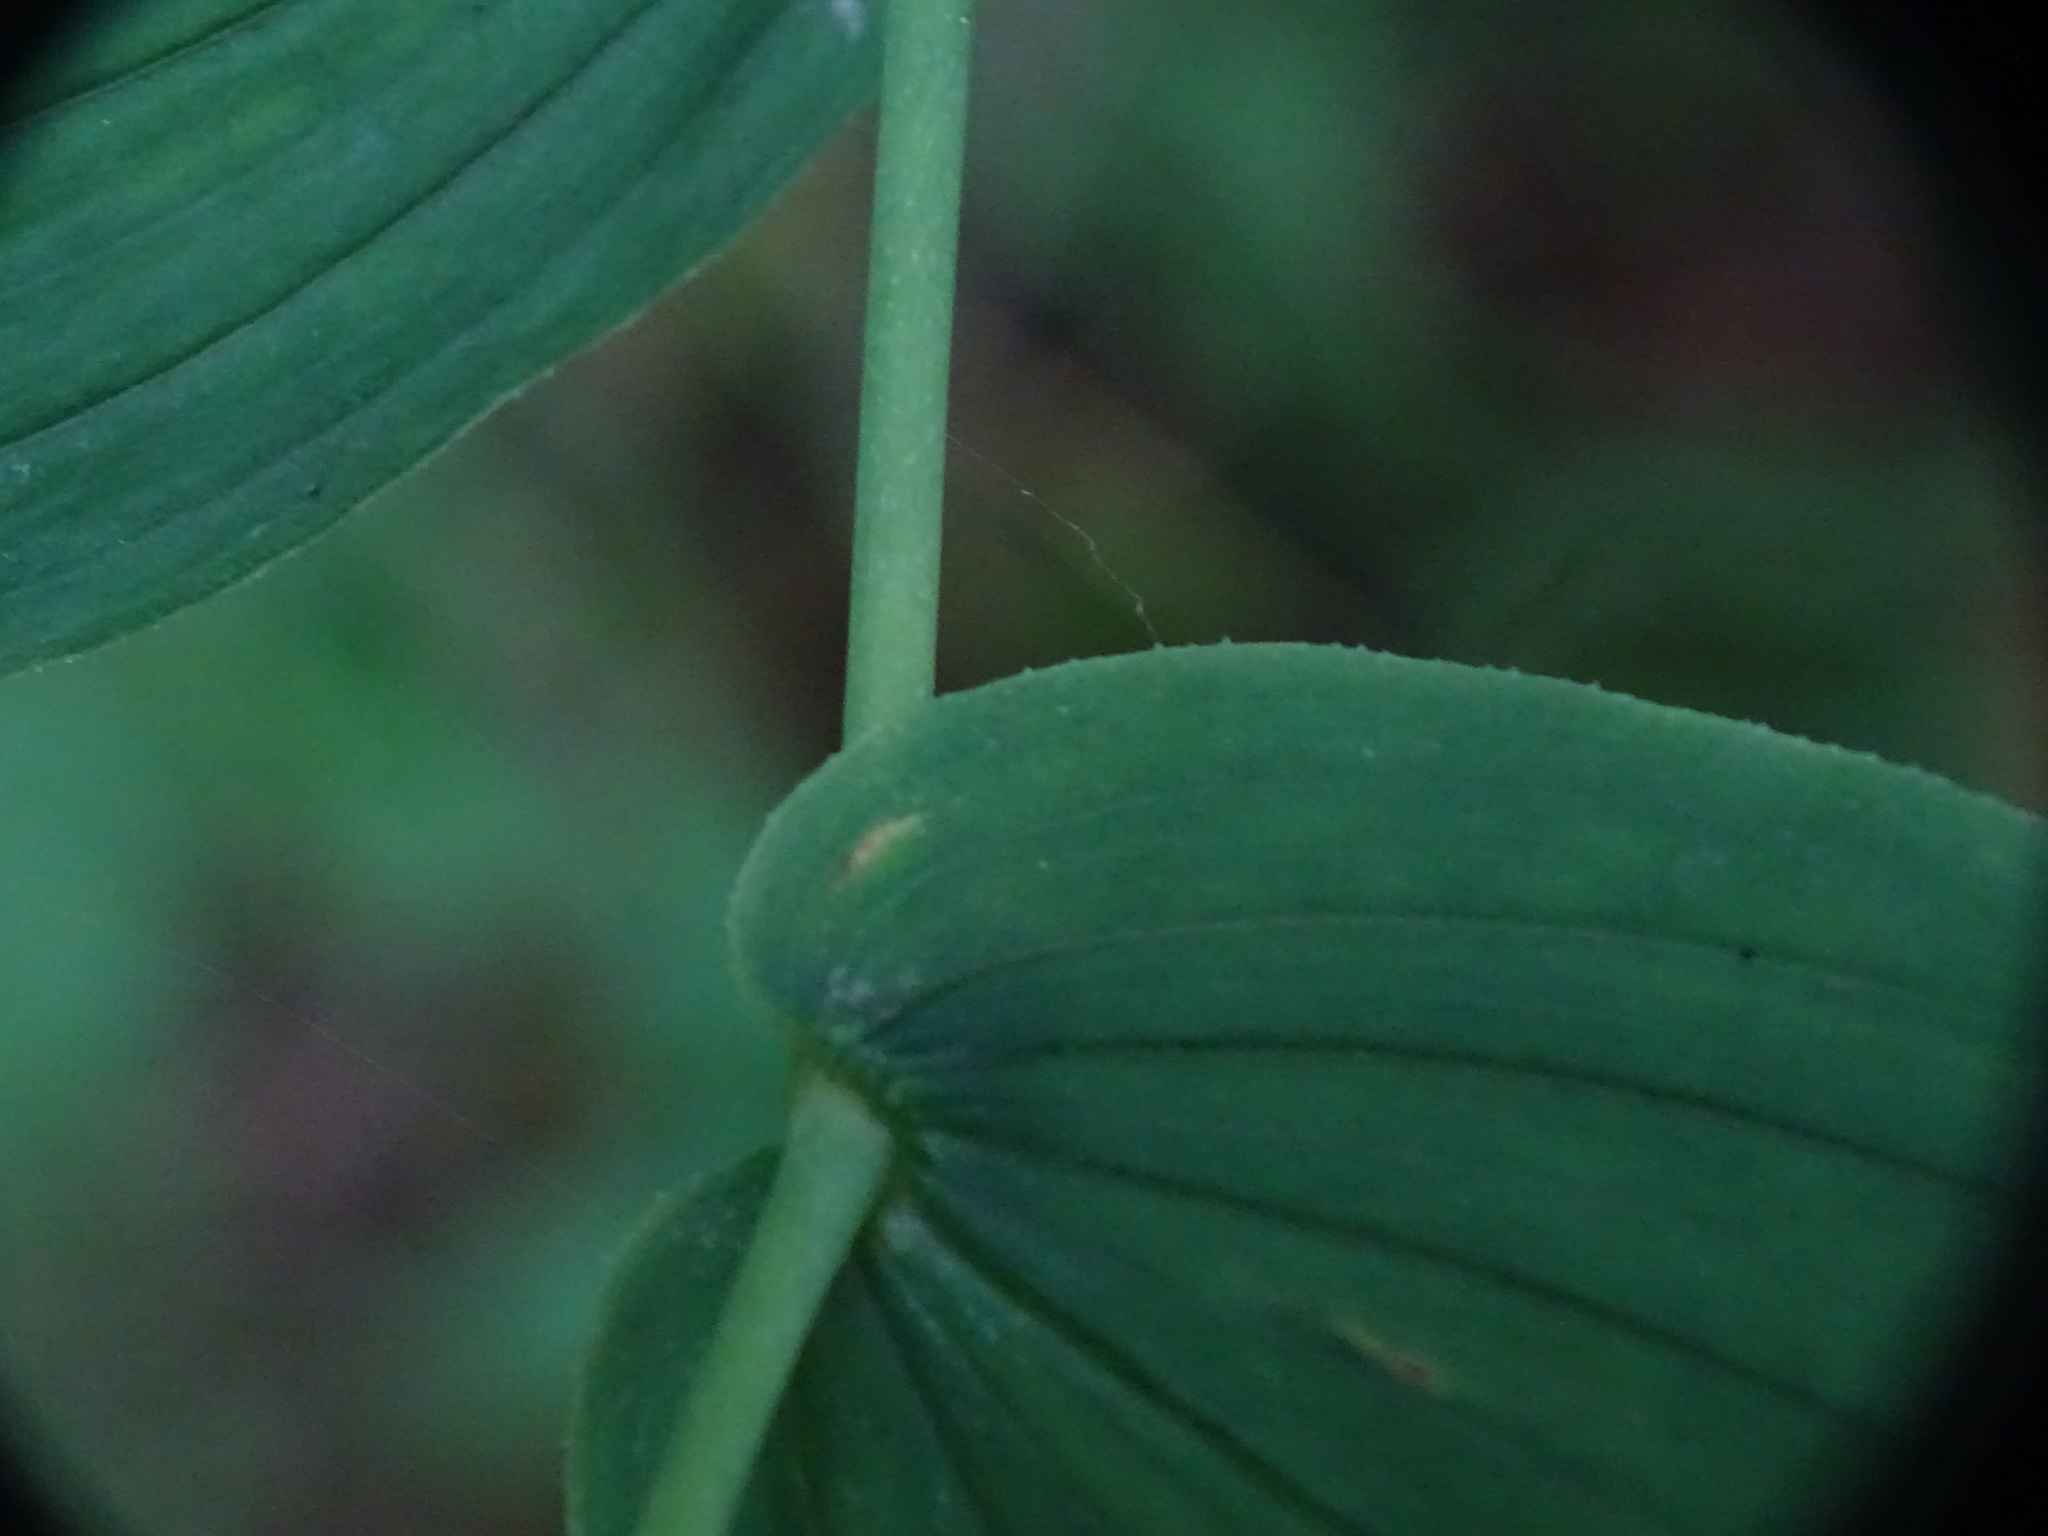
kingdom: Plantae
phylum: Tracheophyta
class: Liliopsida
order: Liliales
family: Liliaceae
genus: Streptopus
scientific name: Streptopus amplexifolius
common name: Clasp twisted stalk
